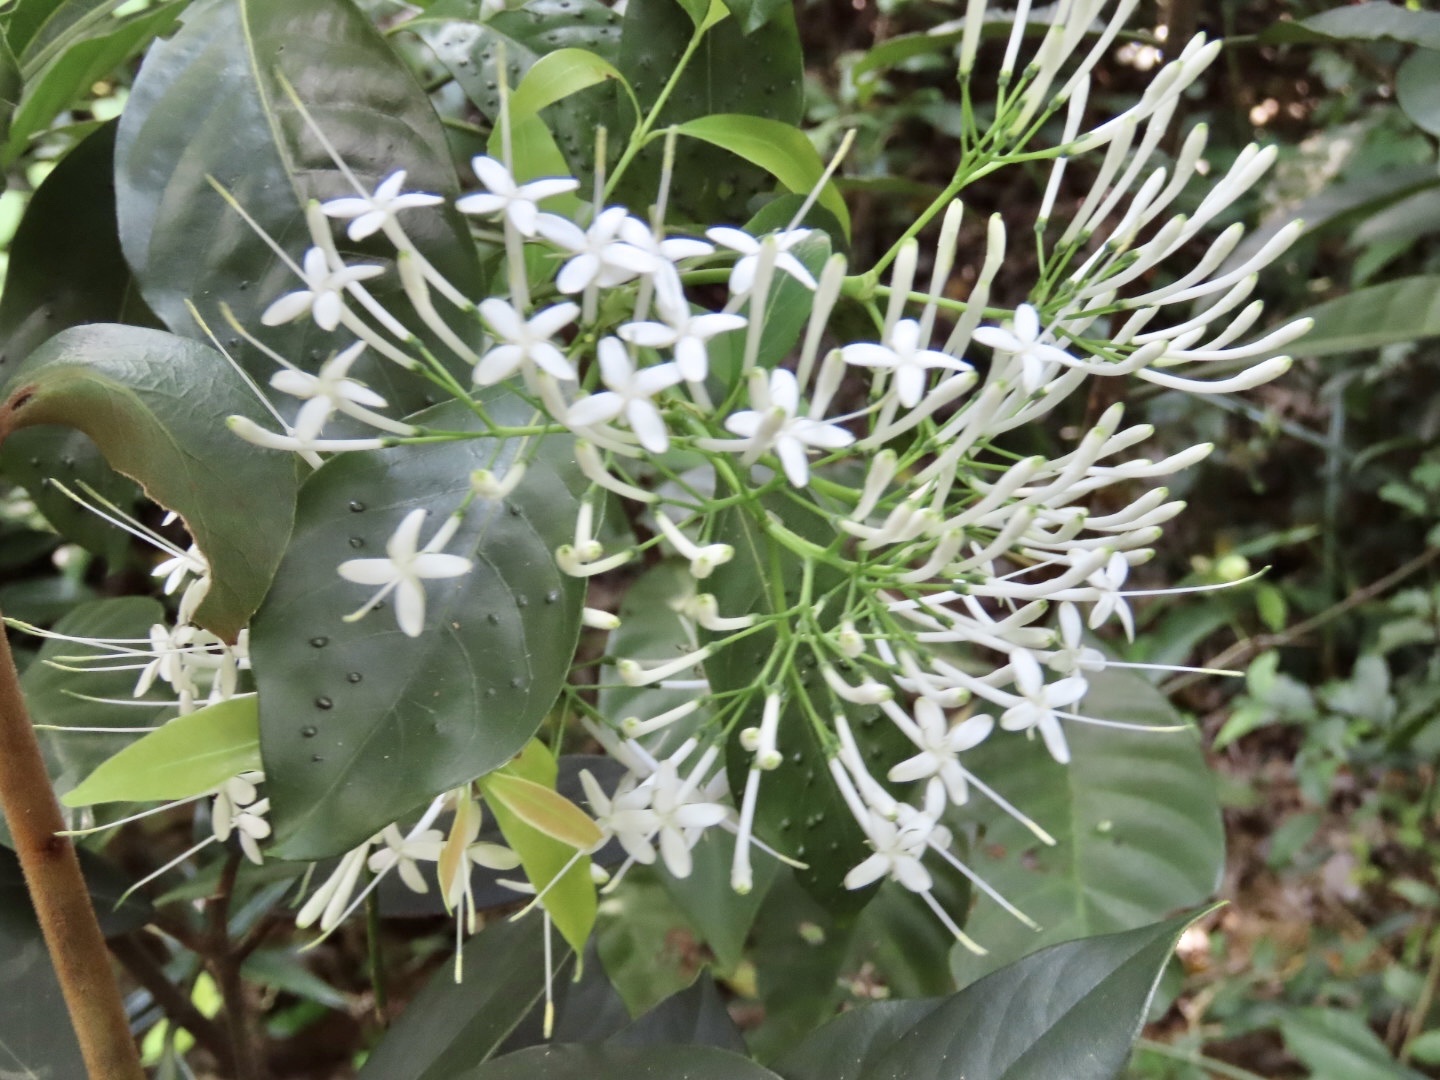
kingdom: Plantae
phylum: Tracheophyta
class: Magnoliopsida
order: Gentianales
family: Rubiaceae
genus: Pavetta
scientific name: Pavetta hongkongensis
